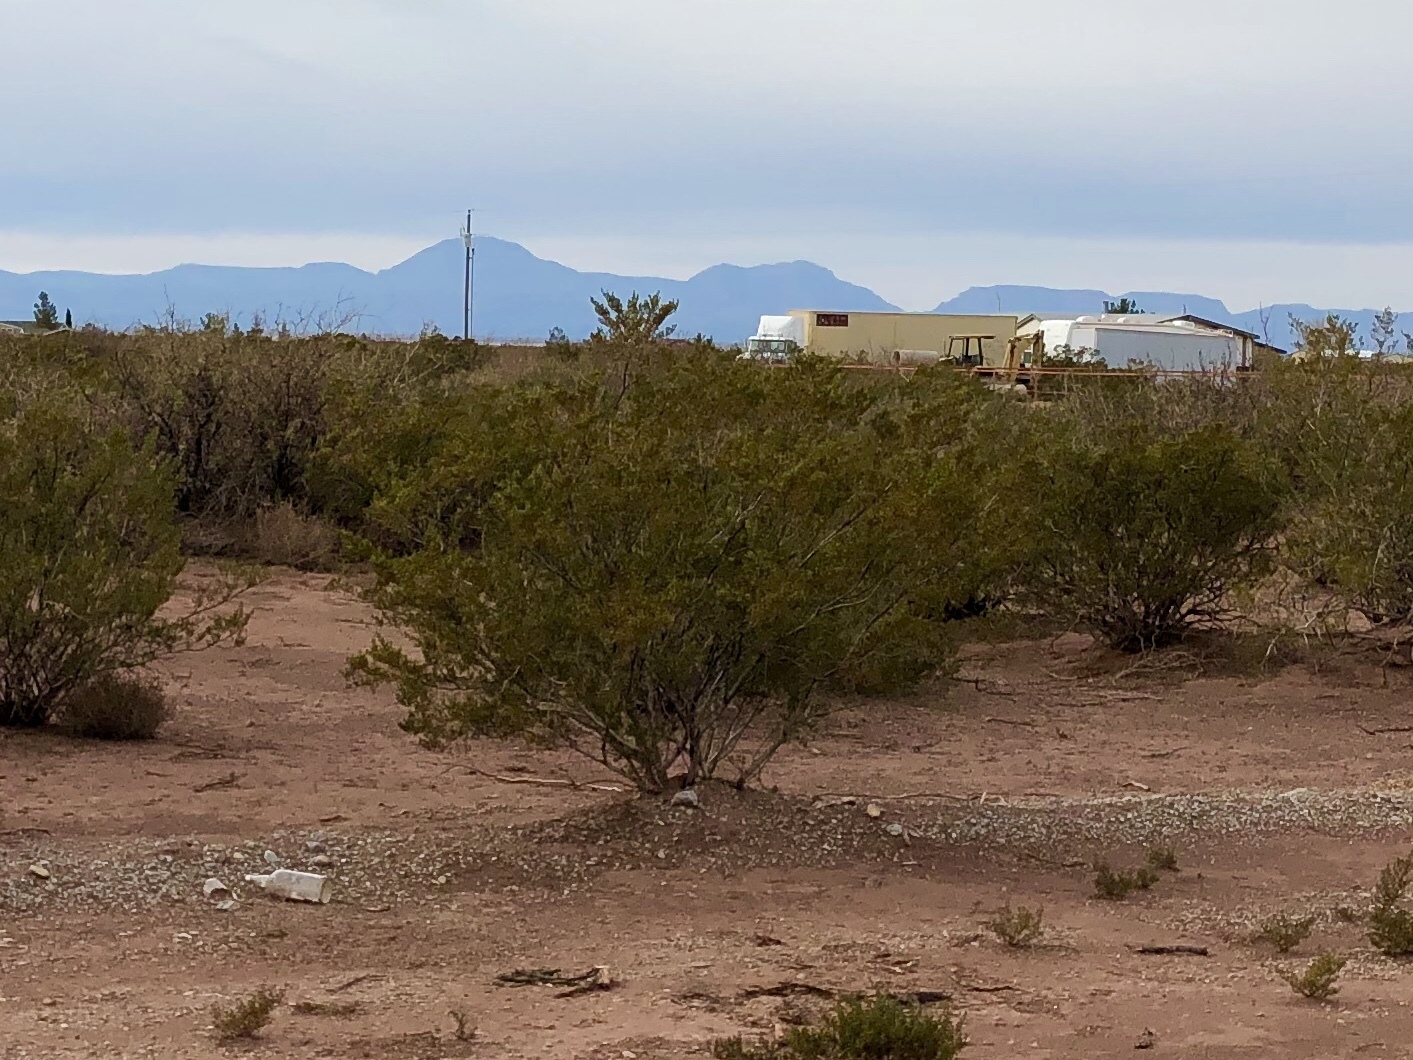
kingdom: Plantae
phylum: Tracheophyta
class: Magnoliopsida
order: Zygophyllales
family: Zygophyllaceae
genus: Larrea
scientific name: Larrea tridentata
